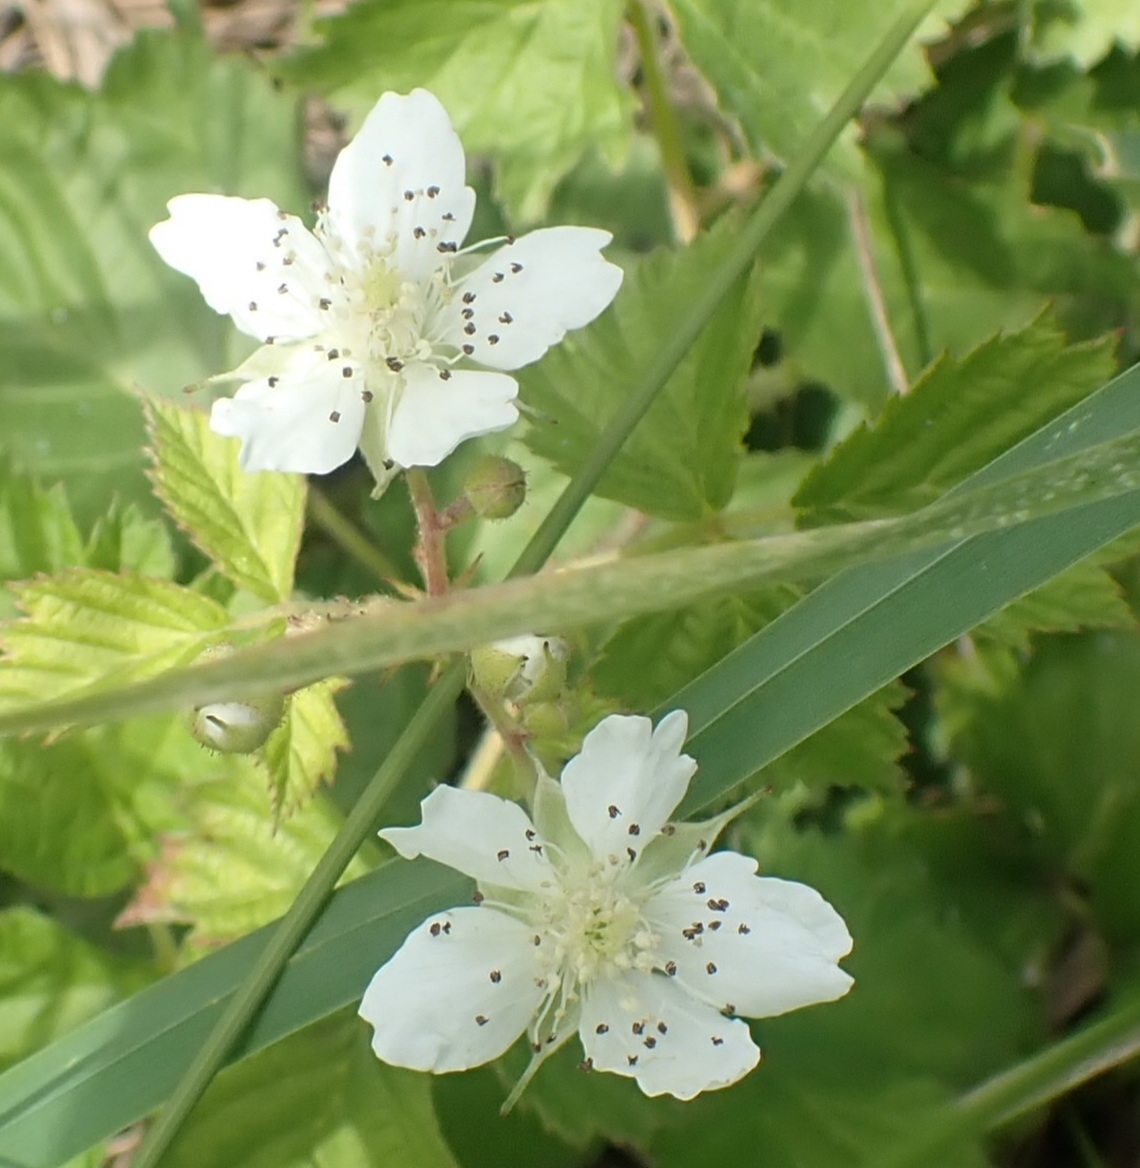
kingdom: Plantae
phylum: Tracheophyta
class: Magnoliopsida
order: Rosales
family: Rosaceae
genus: Rubus
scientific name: Rubus caesius
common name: Dewberry
